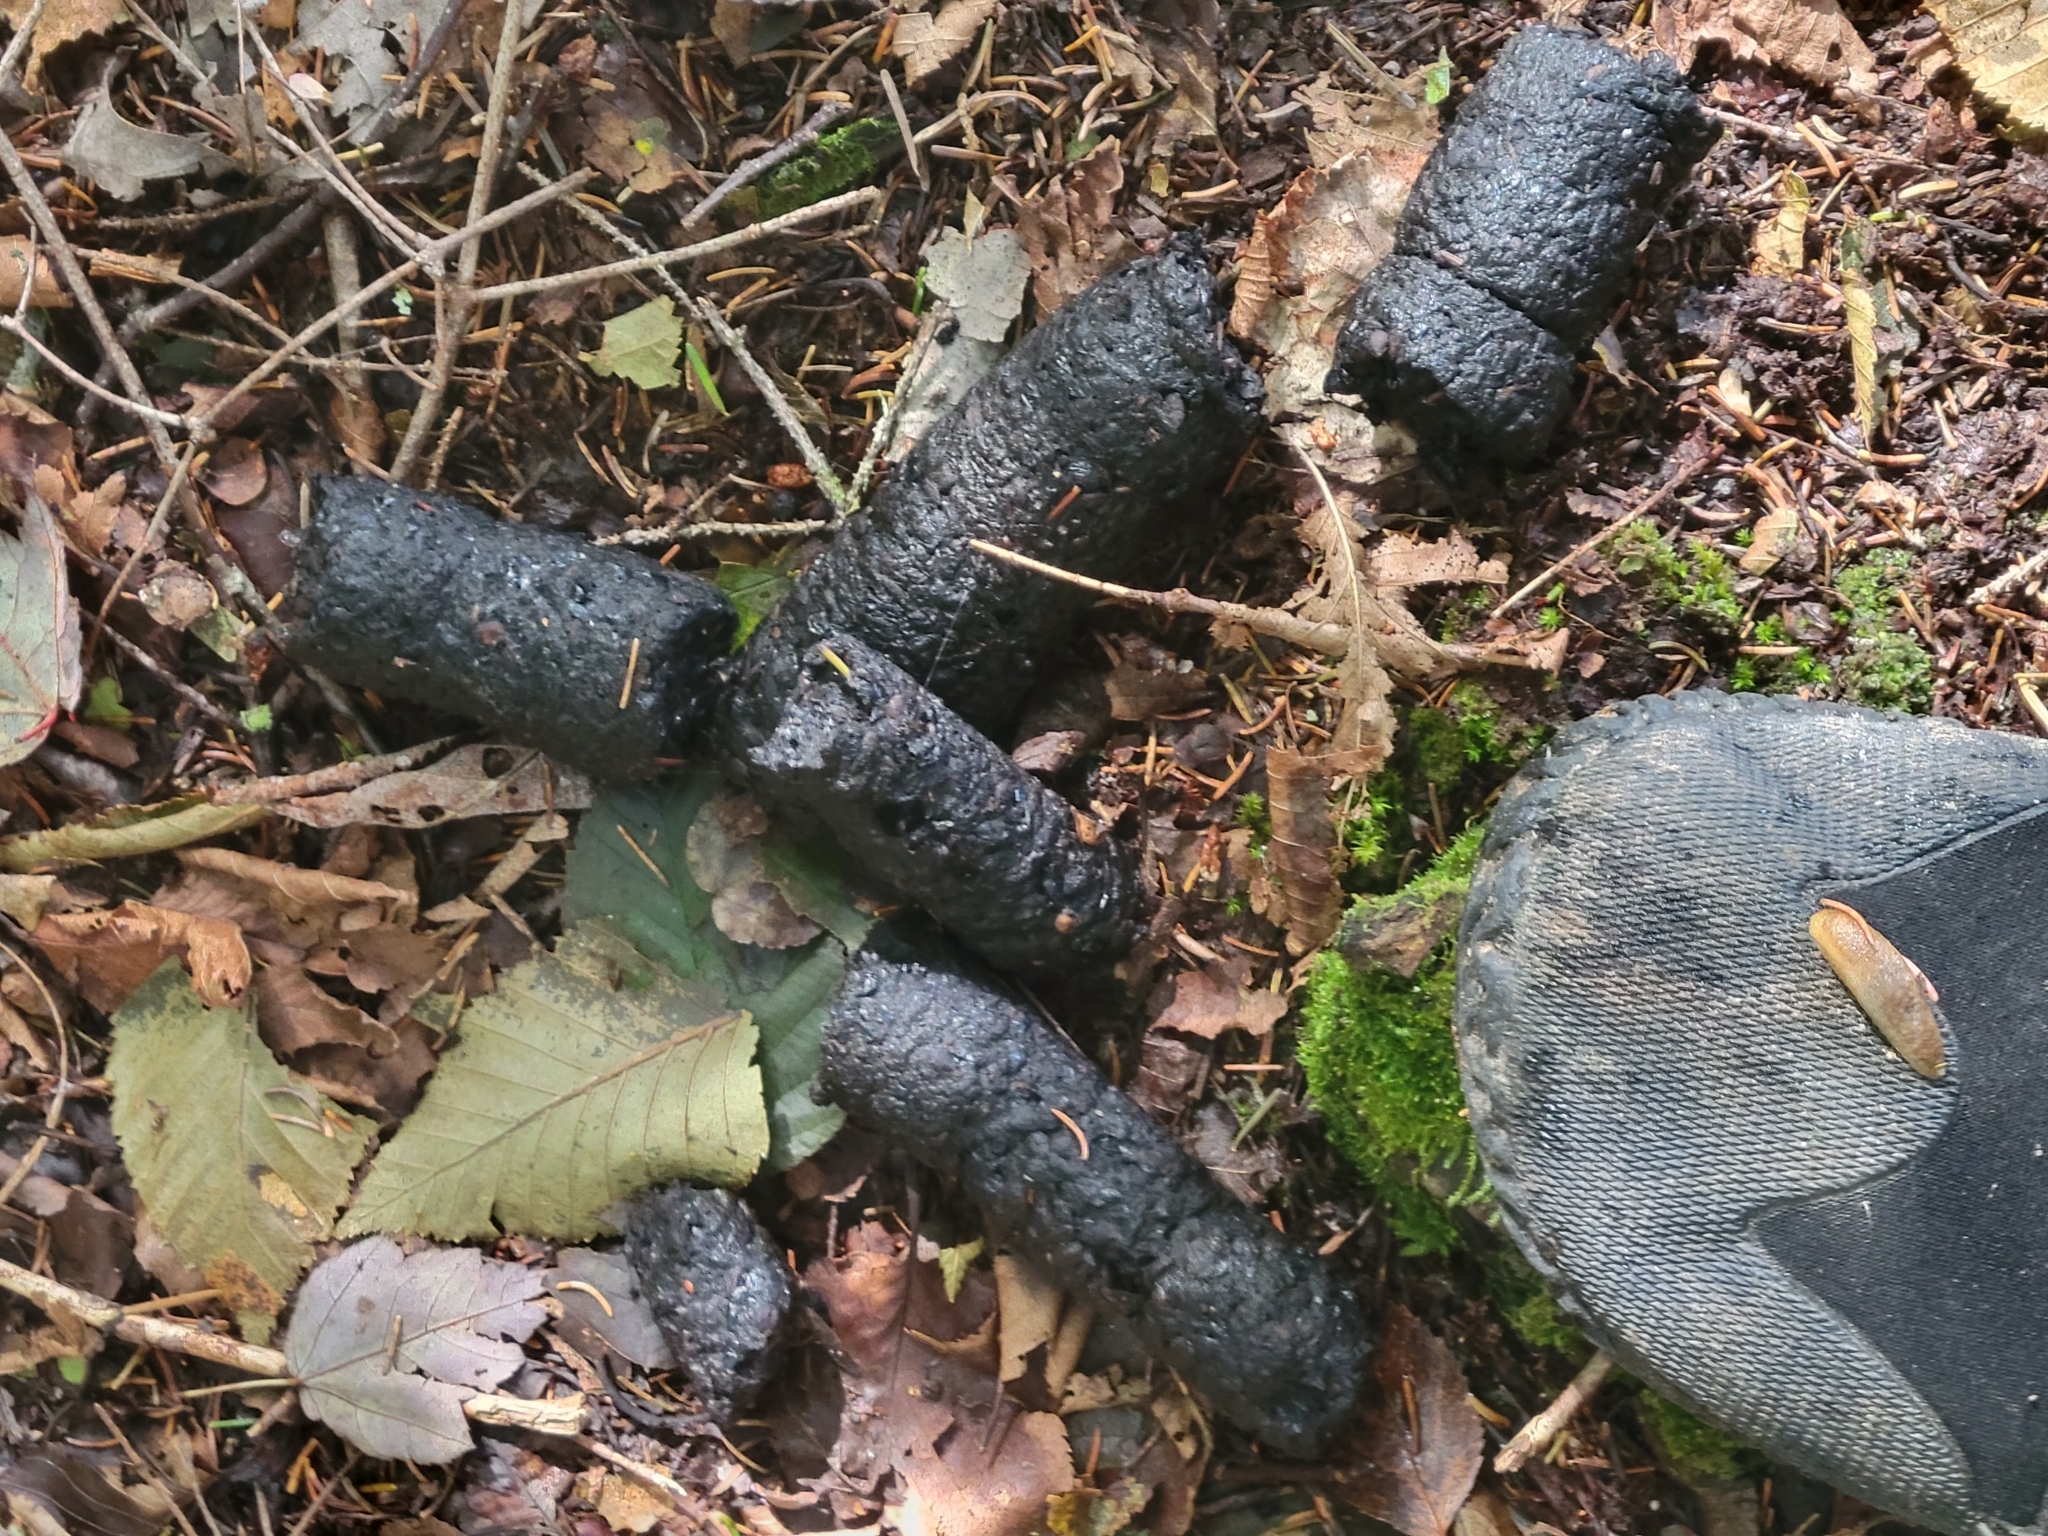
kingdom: Animalia
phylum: Chordata
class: Mammalia
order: Carnivora
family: Ursidae
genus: Ursus
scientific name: Ursus americanus
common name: American black bear
